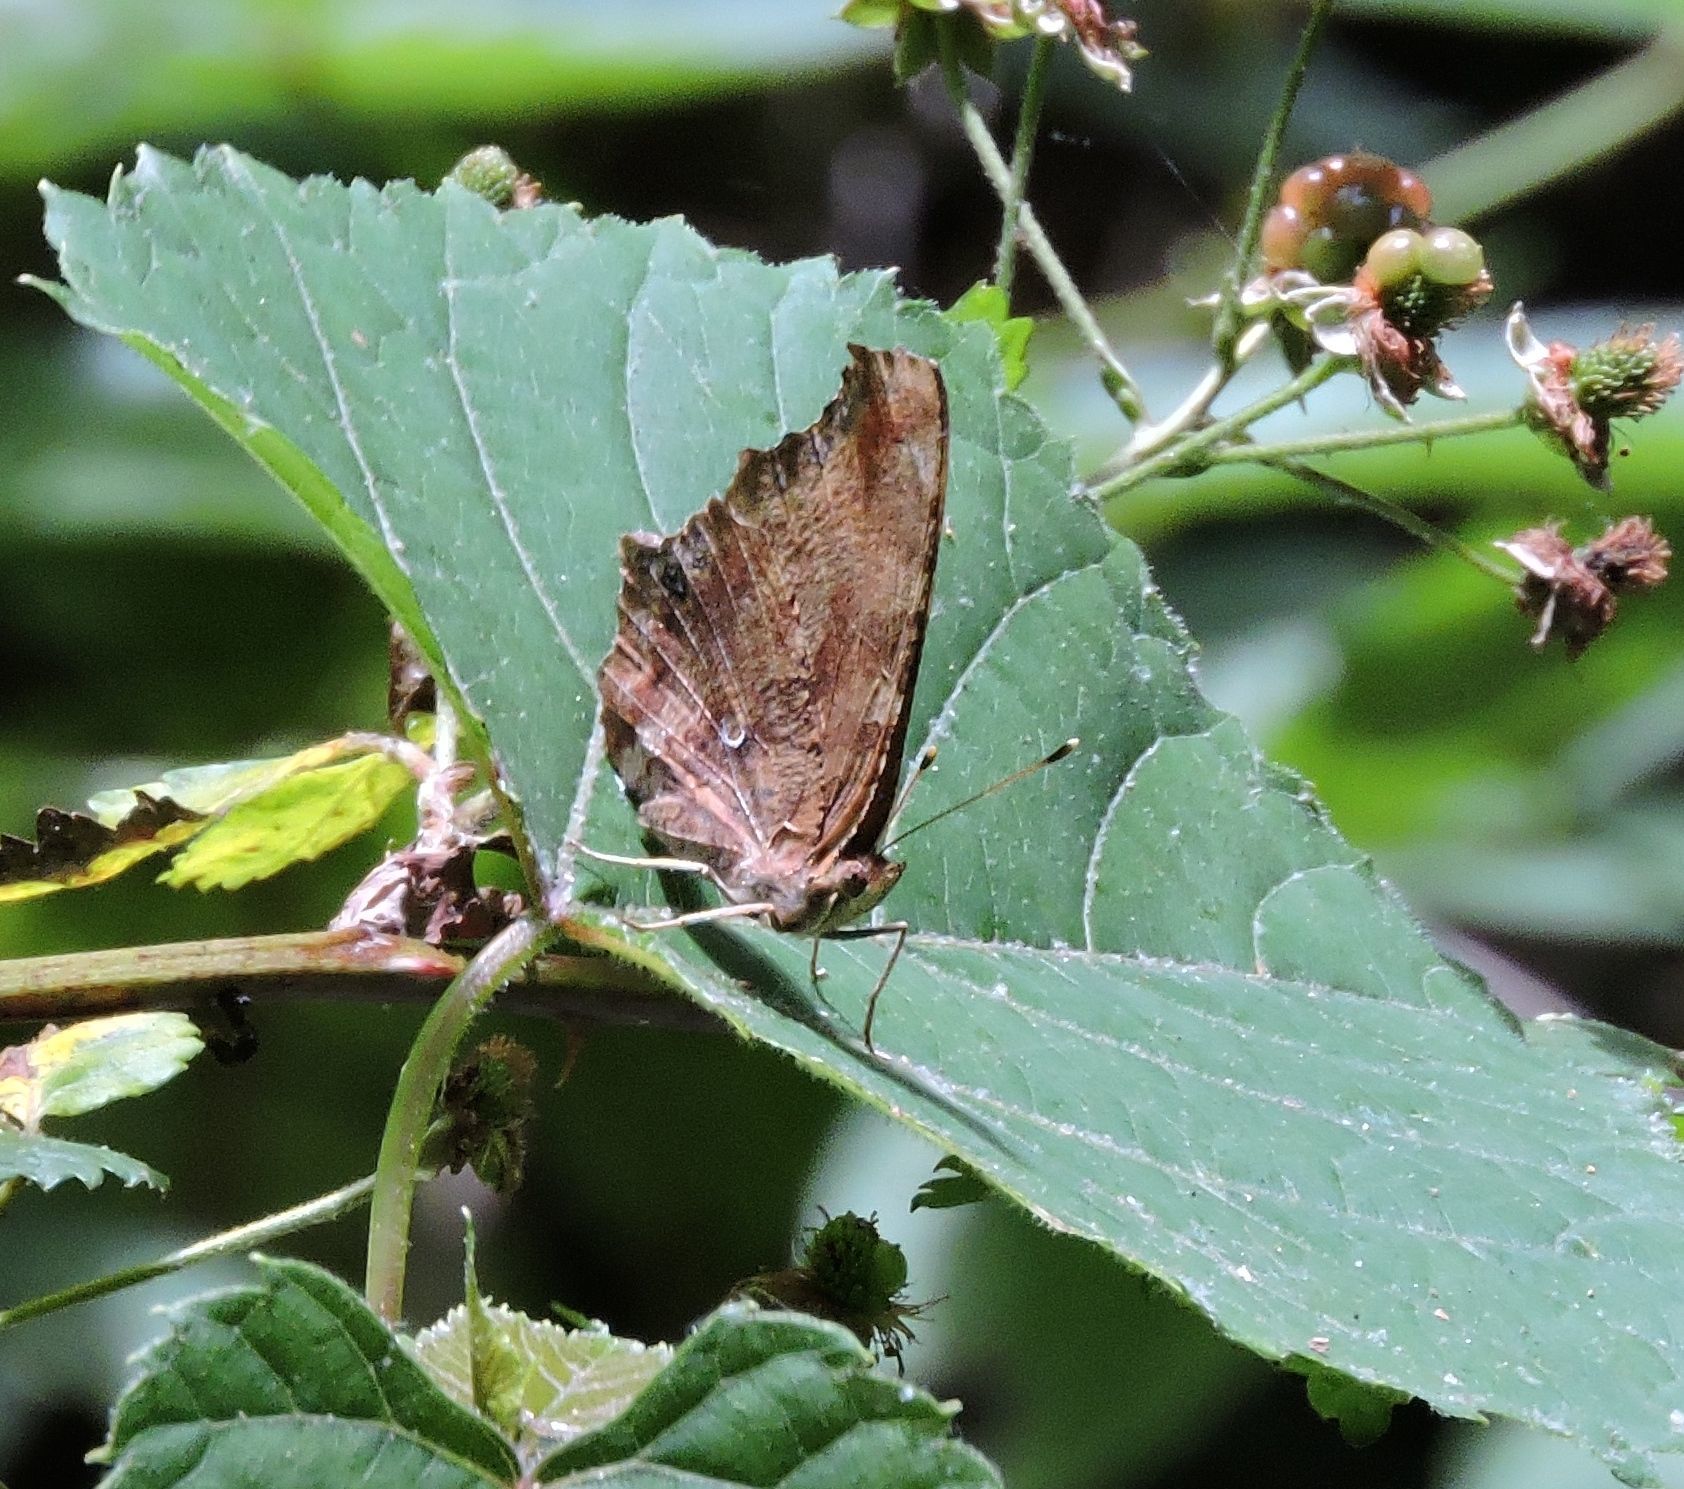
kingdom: Animalia
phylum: Arthropoda
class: Insecta
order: Lepidoptera
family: Nymphalidae
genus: Polygonia
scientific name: Polygonia comma
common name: Eastern comma
